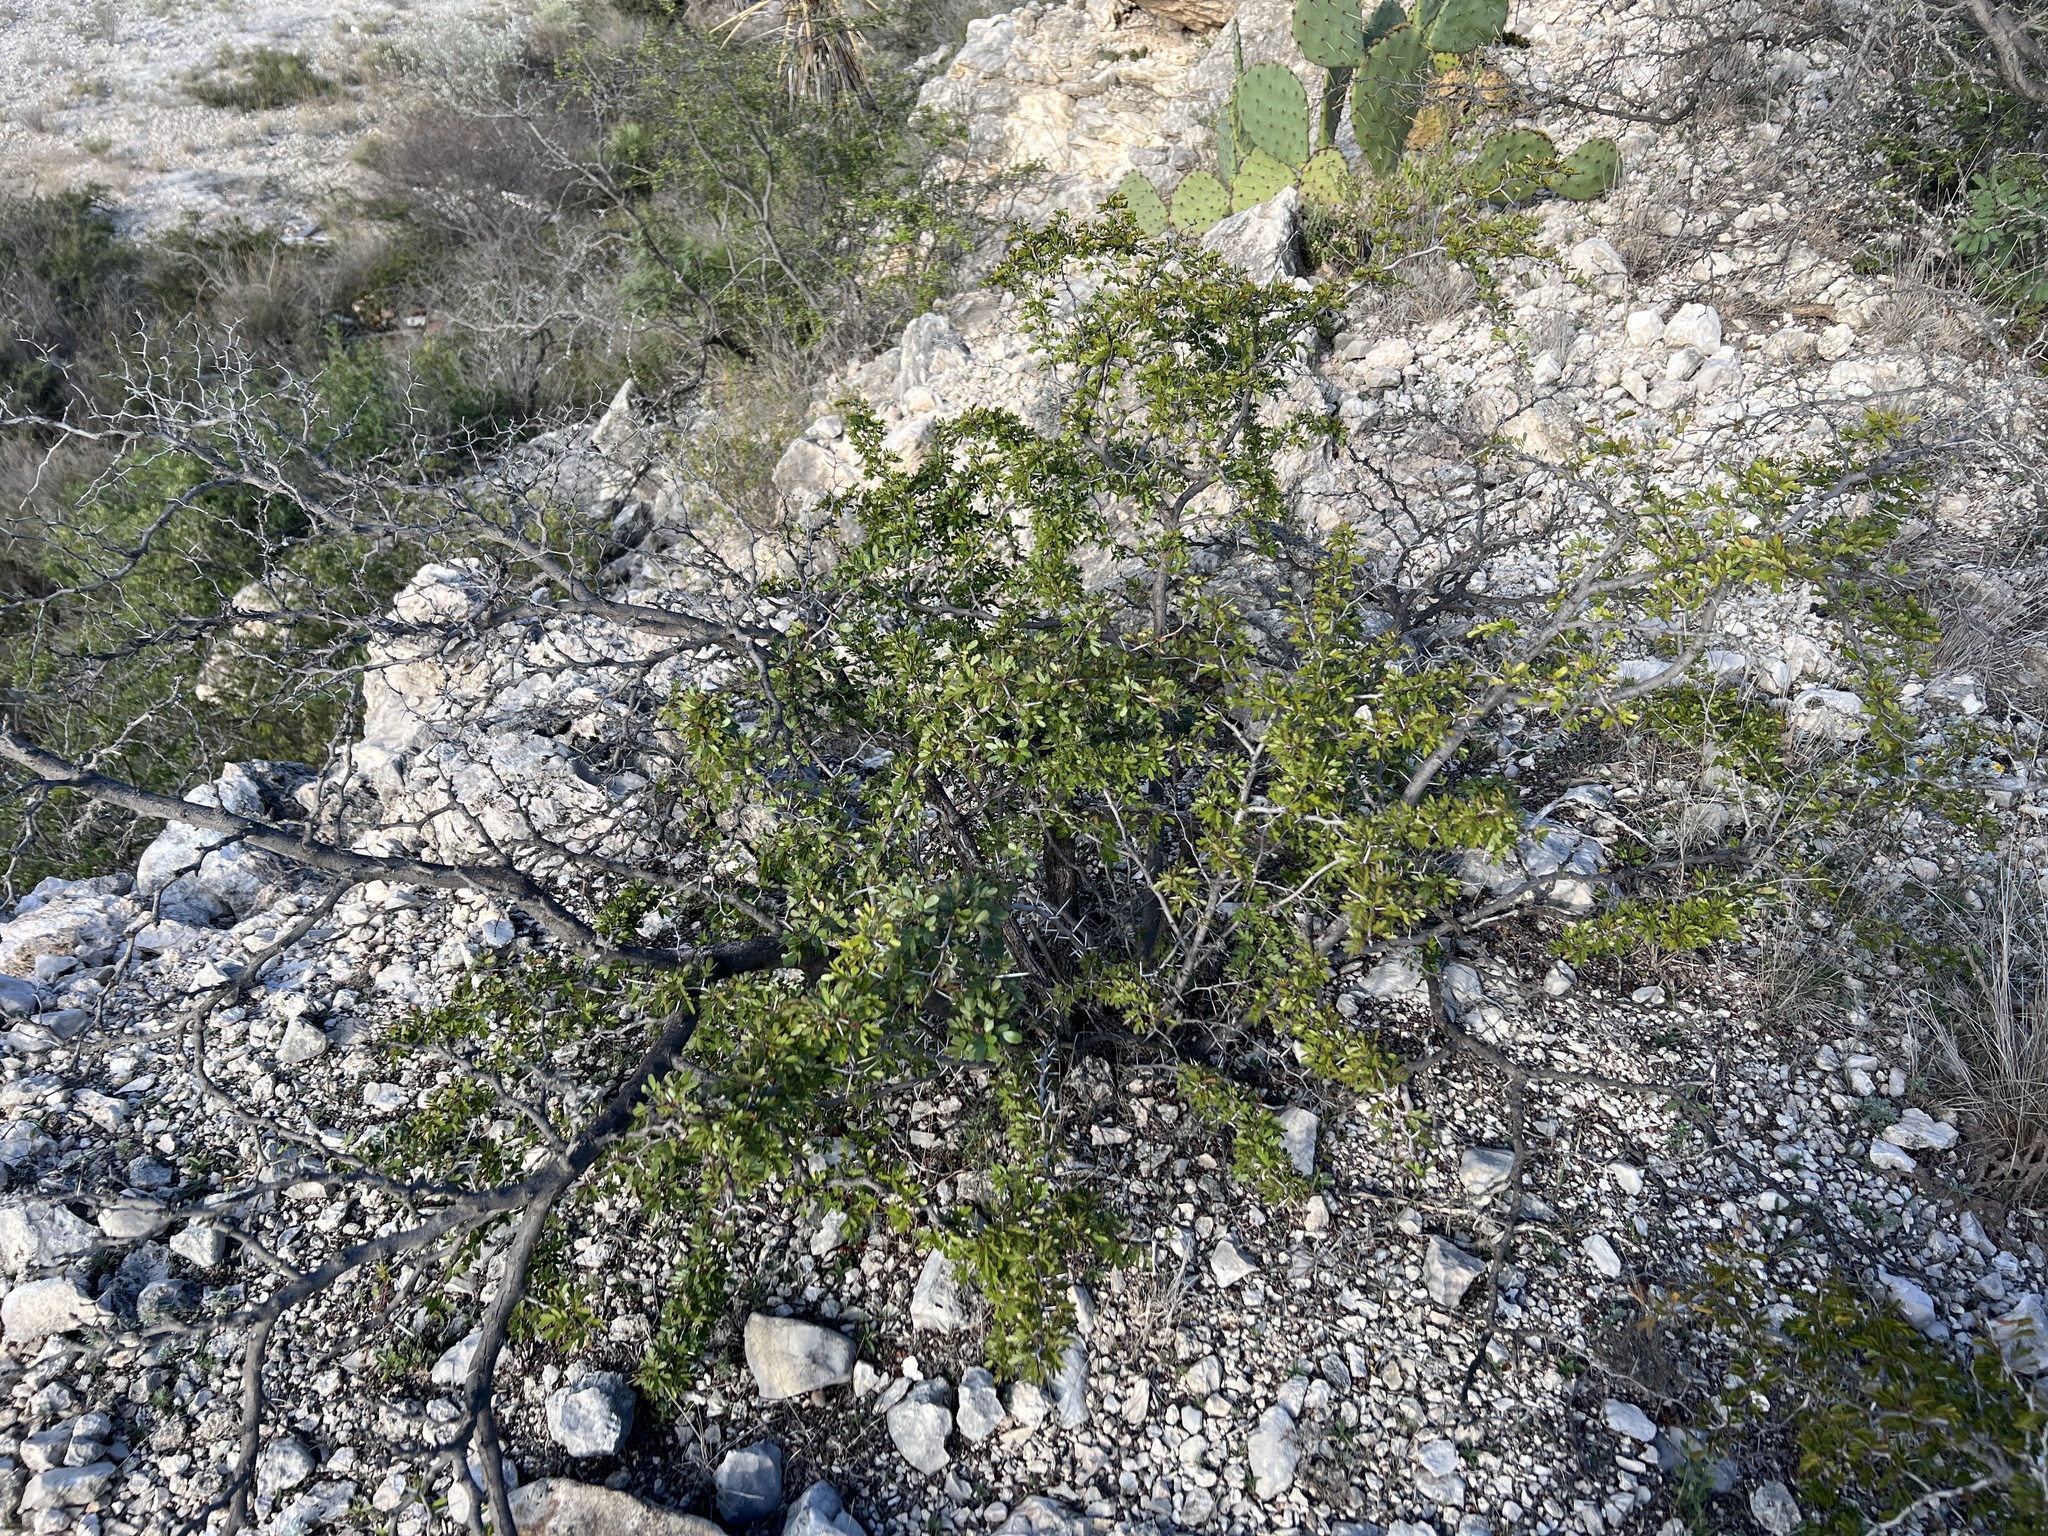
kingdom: Plantae
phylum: Tracheophyta
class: Magnoliopsida
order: Fabales
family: Fabaceae
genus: Vachellia
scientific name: Vachellia rigidula
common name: Blackbrush
